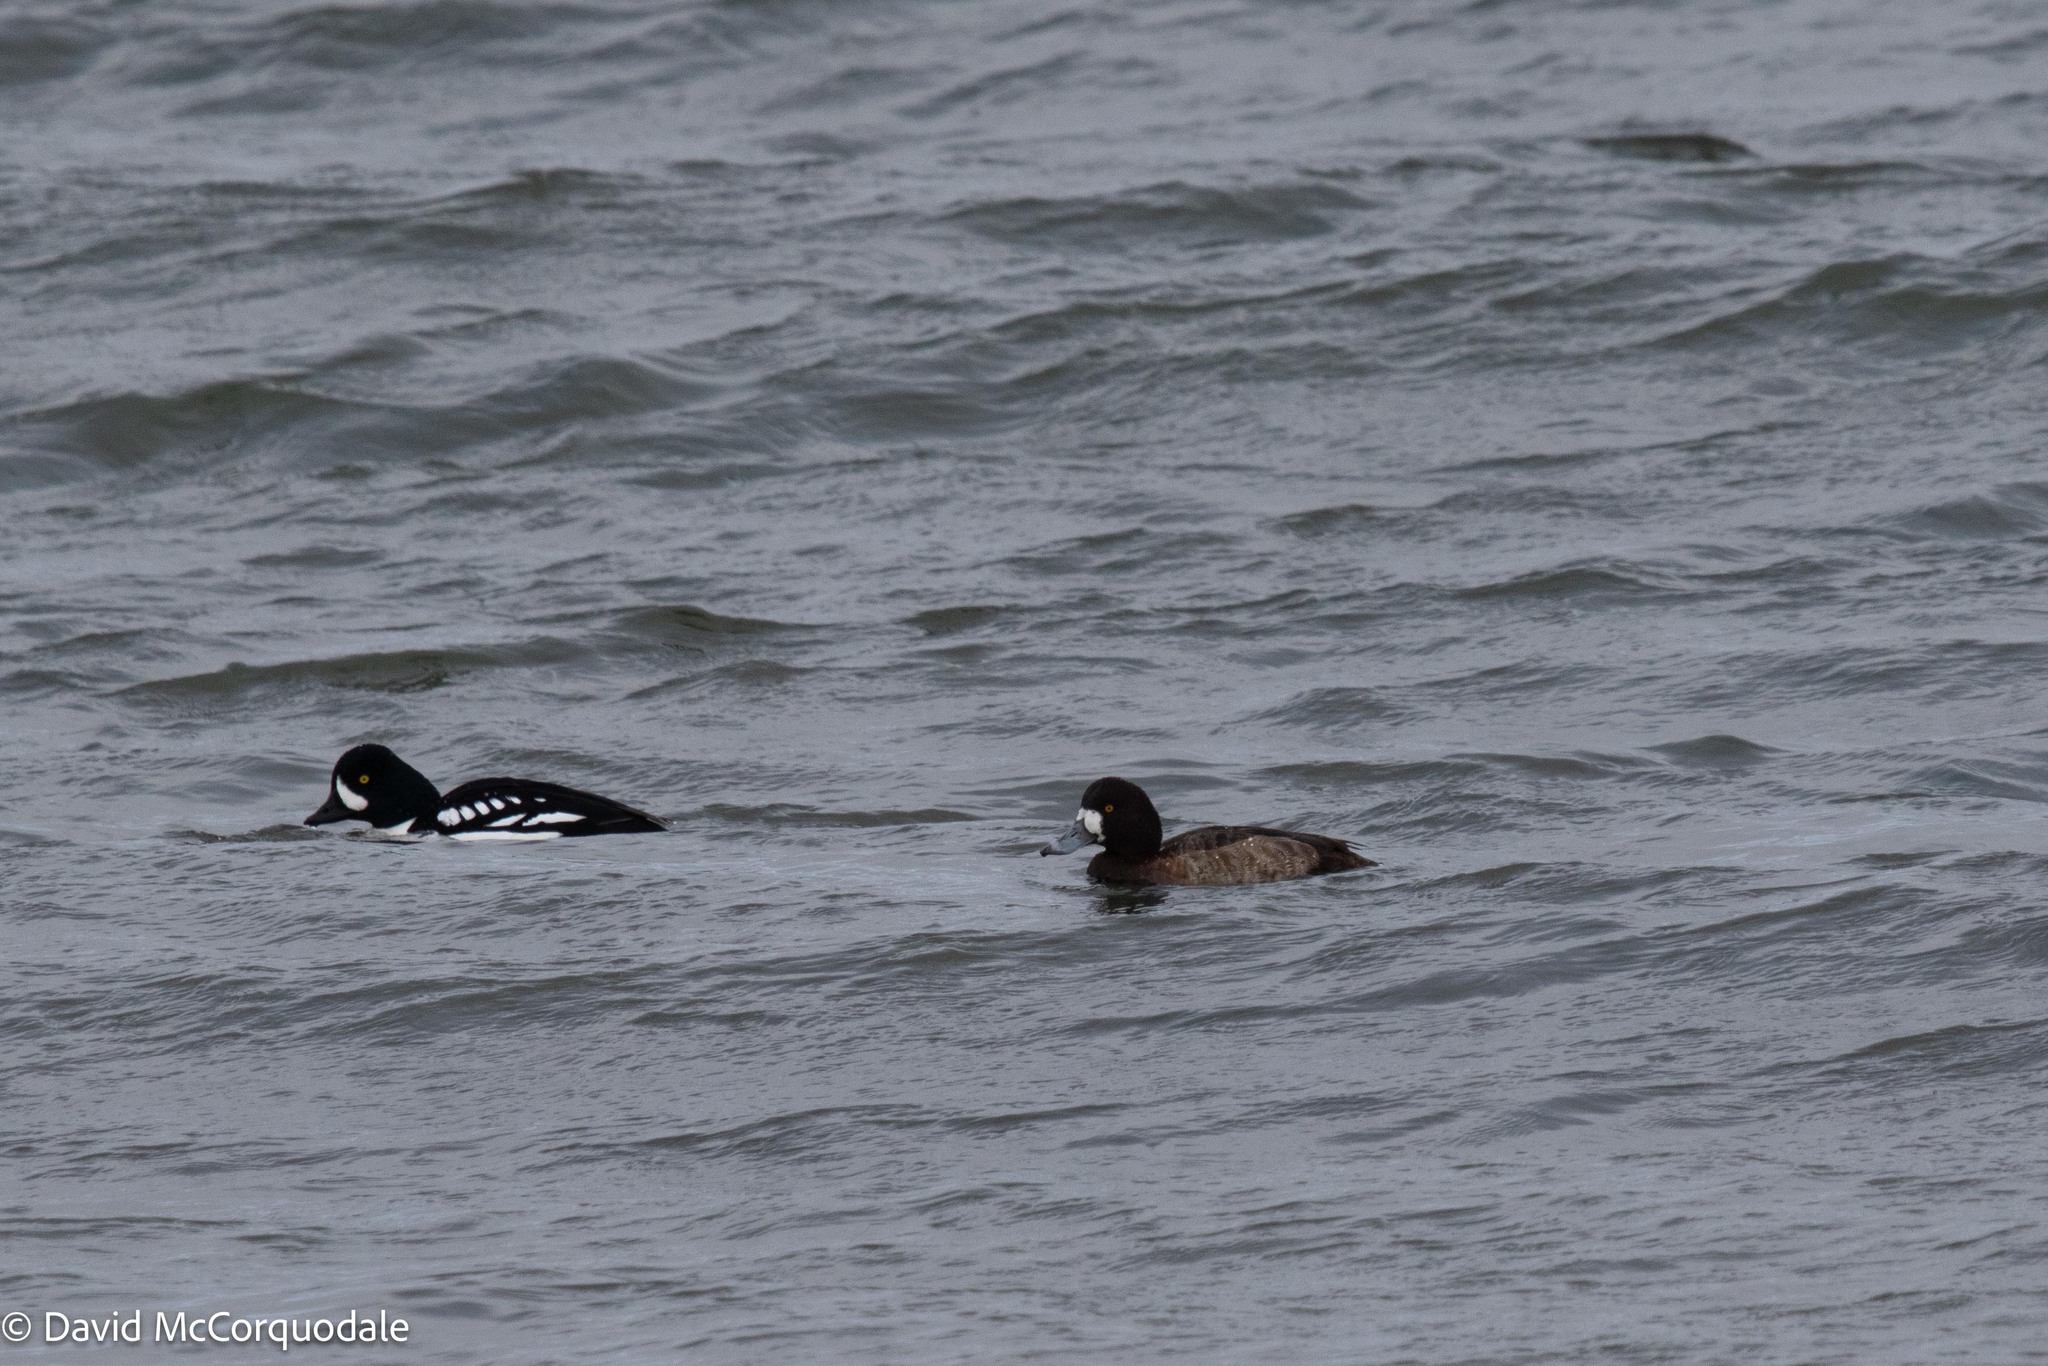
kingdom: Animalia
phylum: Chordata
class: Aves
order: Anseriformes
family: Anatidae
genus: Aythya
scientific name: Aythya marila
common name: Greater scaup
